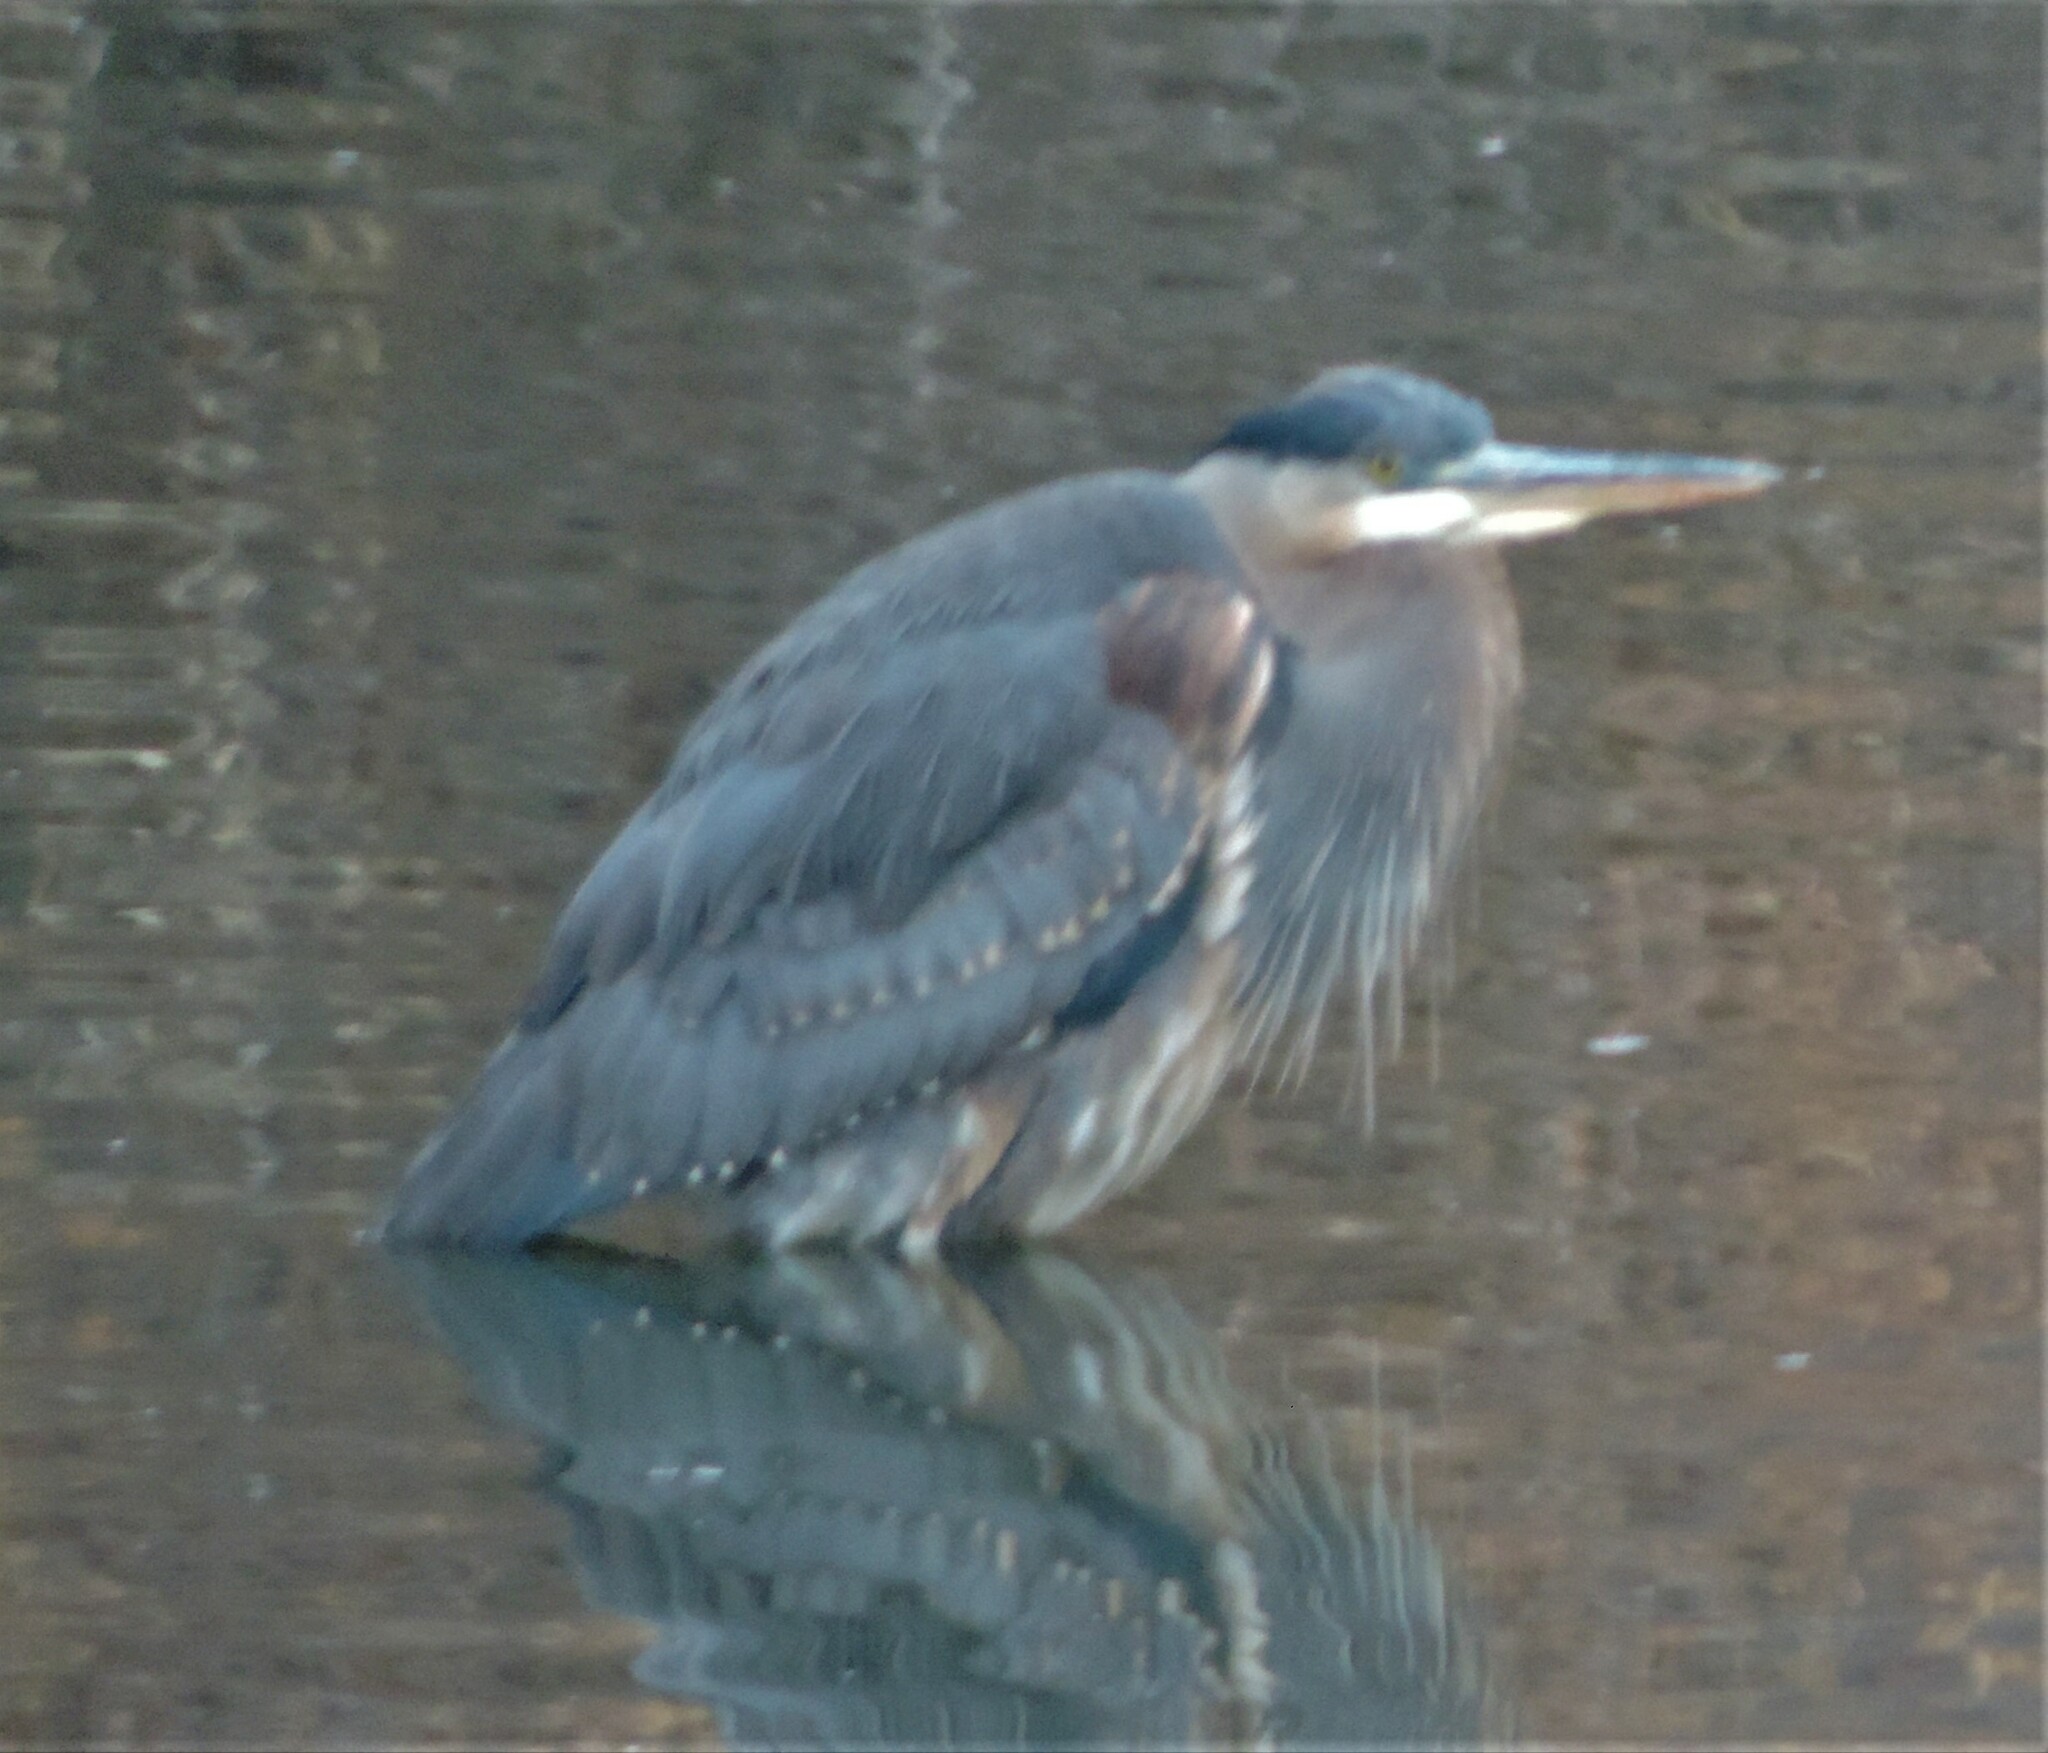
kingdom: Animalia
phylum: Chordata
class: Aves
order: Pelecaniformes
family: Ardeidae
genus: Ardea
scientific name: Ardea herodias
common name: Great blue heron
